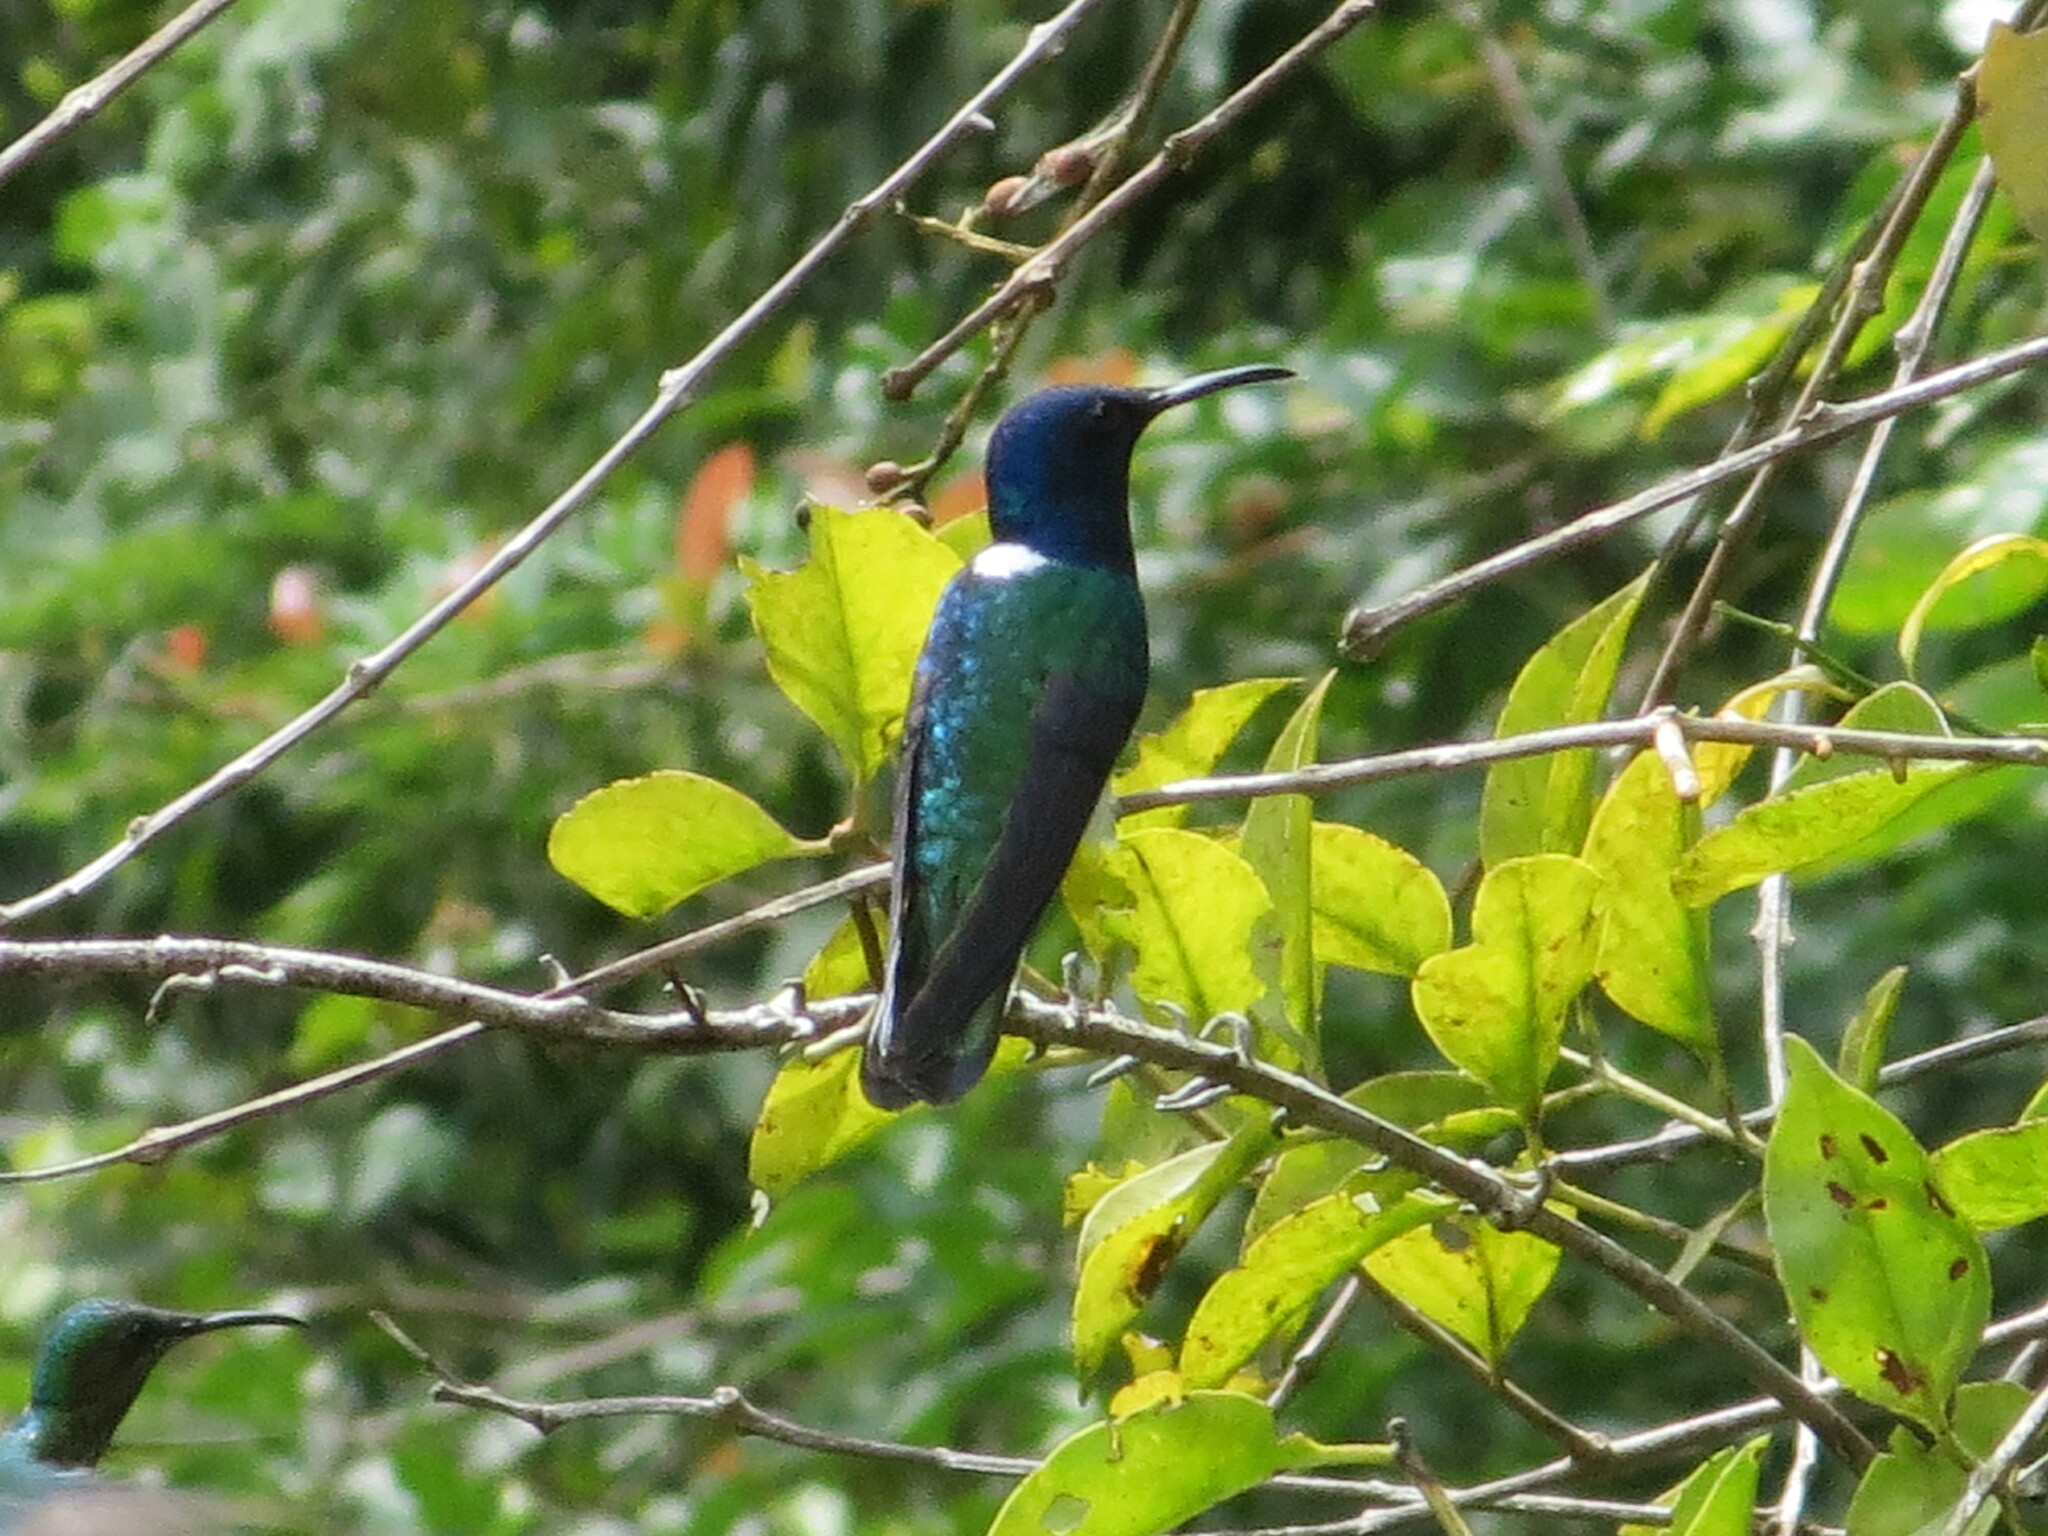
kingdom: Animalia
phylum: Chordata
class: Aves
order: Apodiformes
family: Trochilidae
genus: Florisuga
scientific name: Florisuga mellivora
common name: White-necked jacobin
